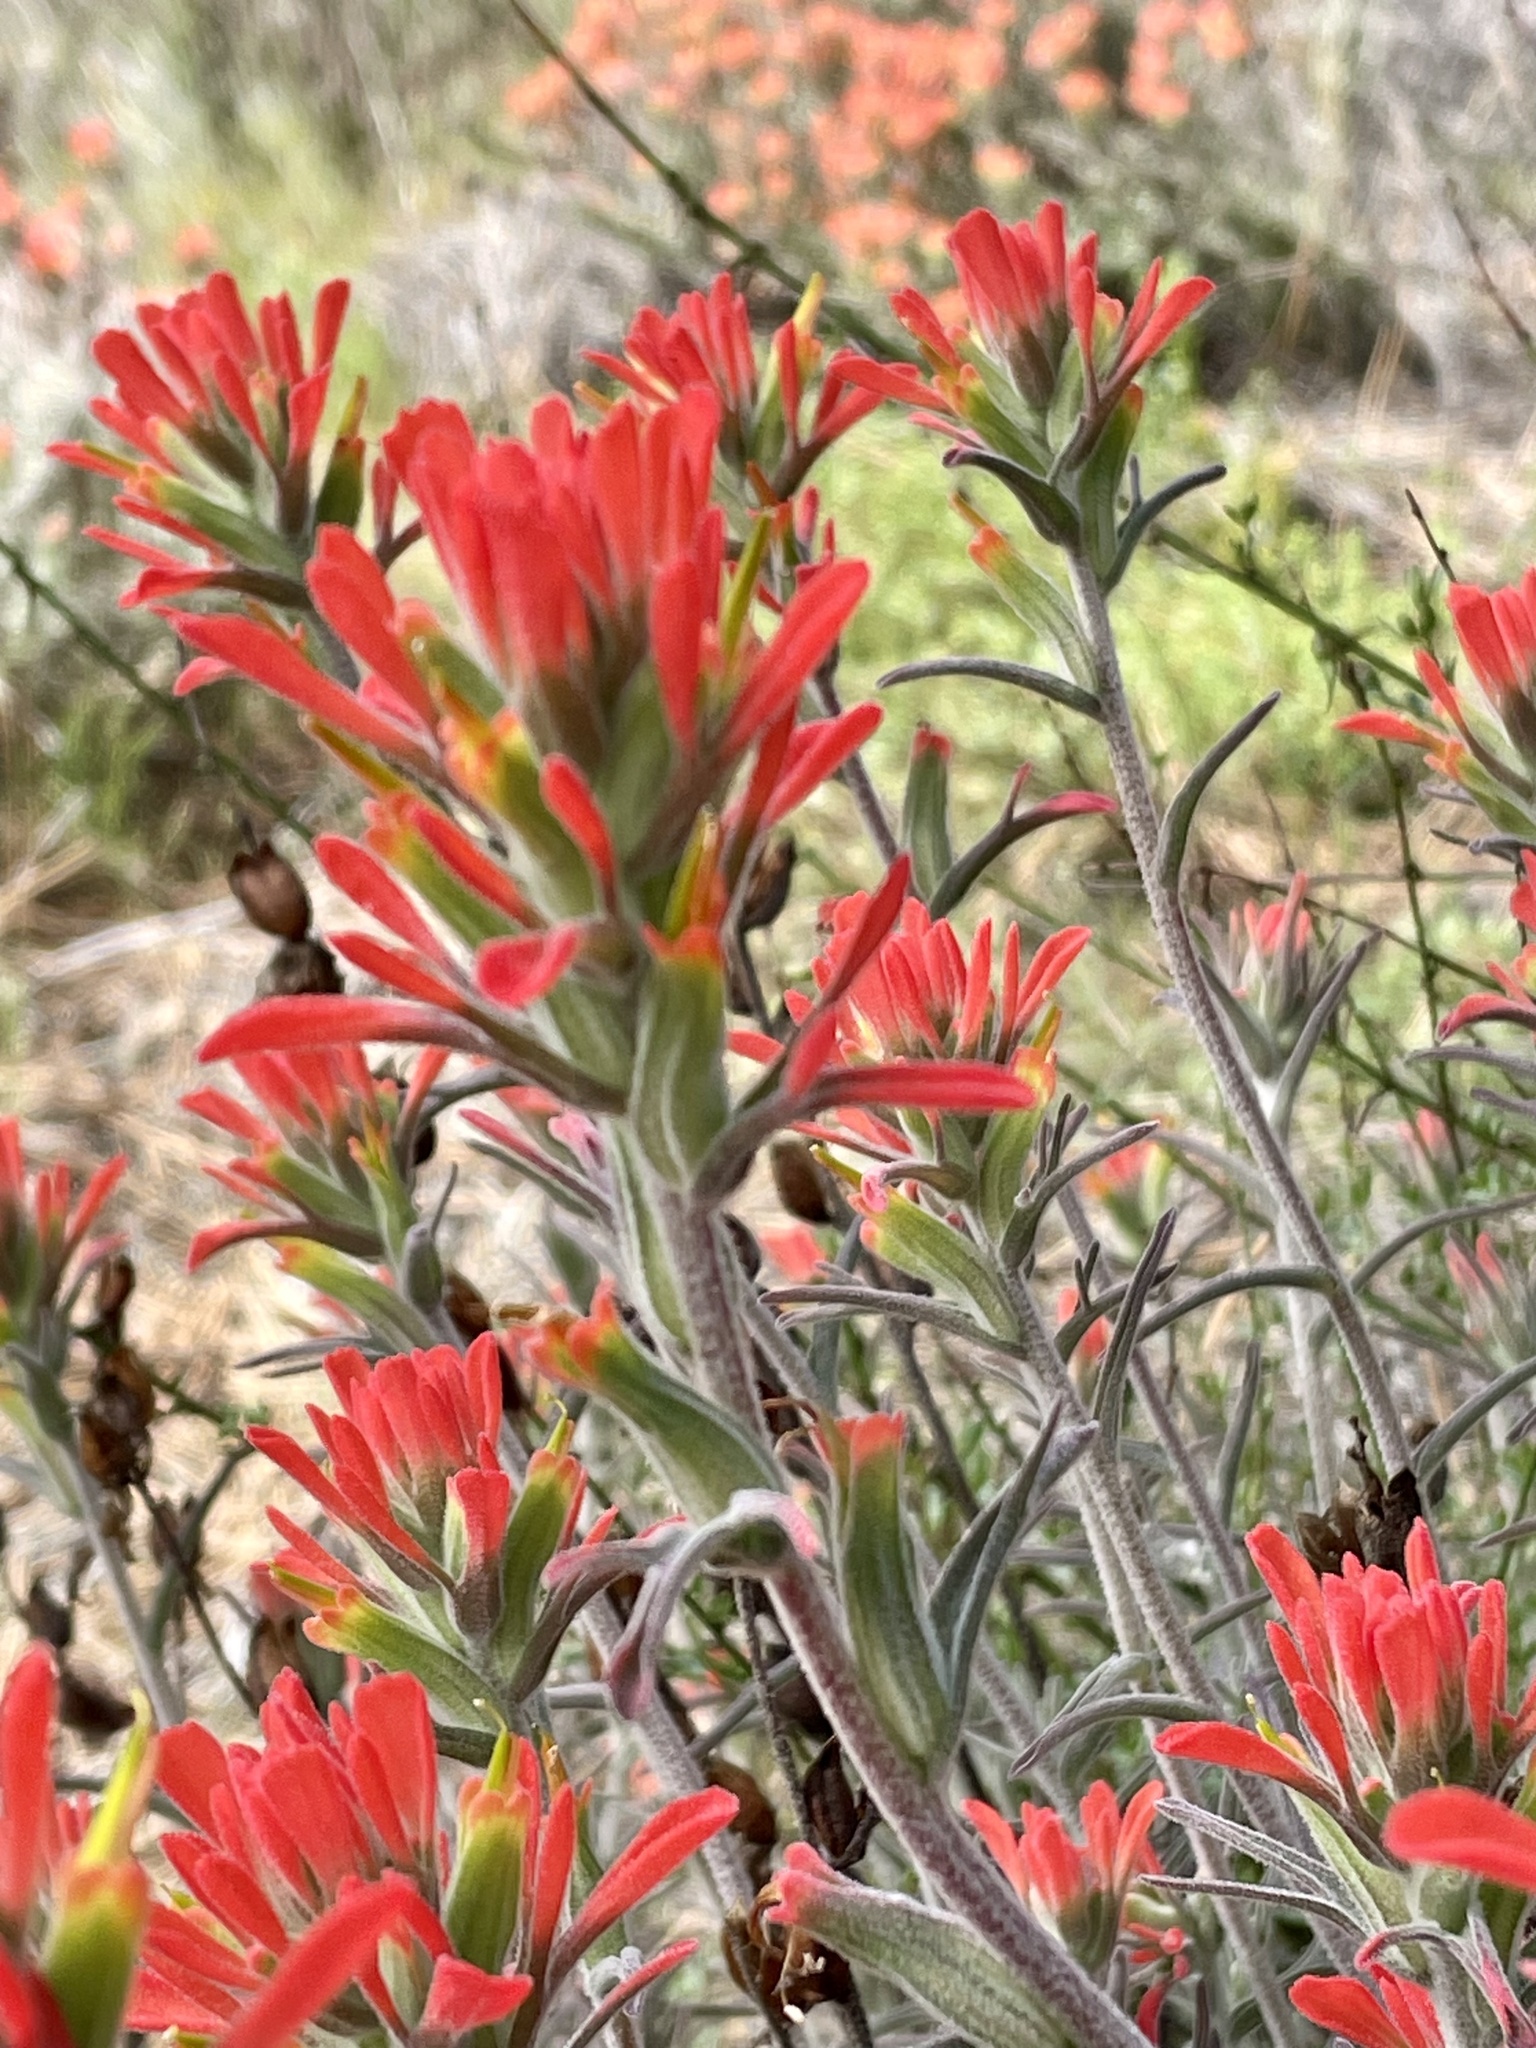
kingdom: Plantae
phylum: Tracheophyta
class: Magnoliopsida
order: Lamiales
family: Orobanchaceae
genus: Castilleja
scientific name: Castilleja foliolosa
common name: Woolly indian paintbrush
